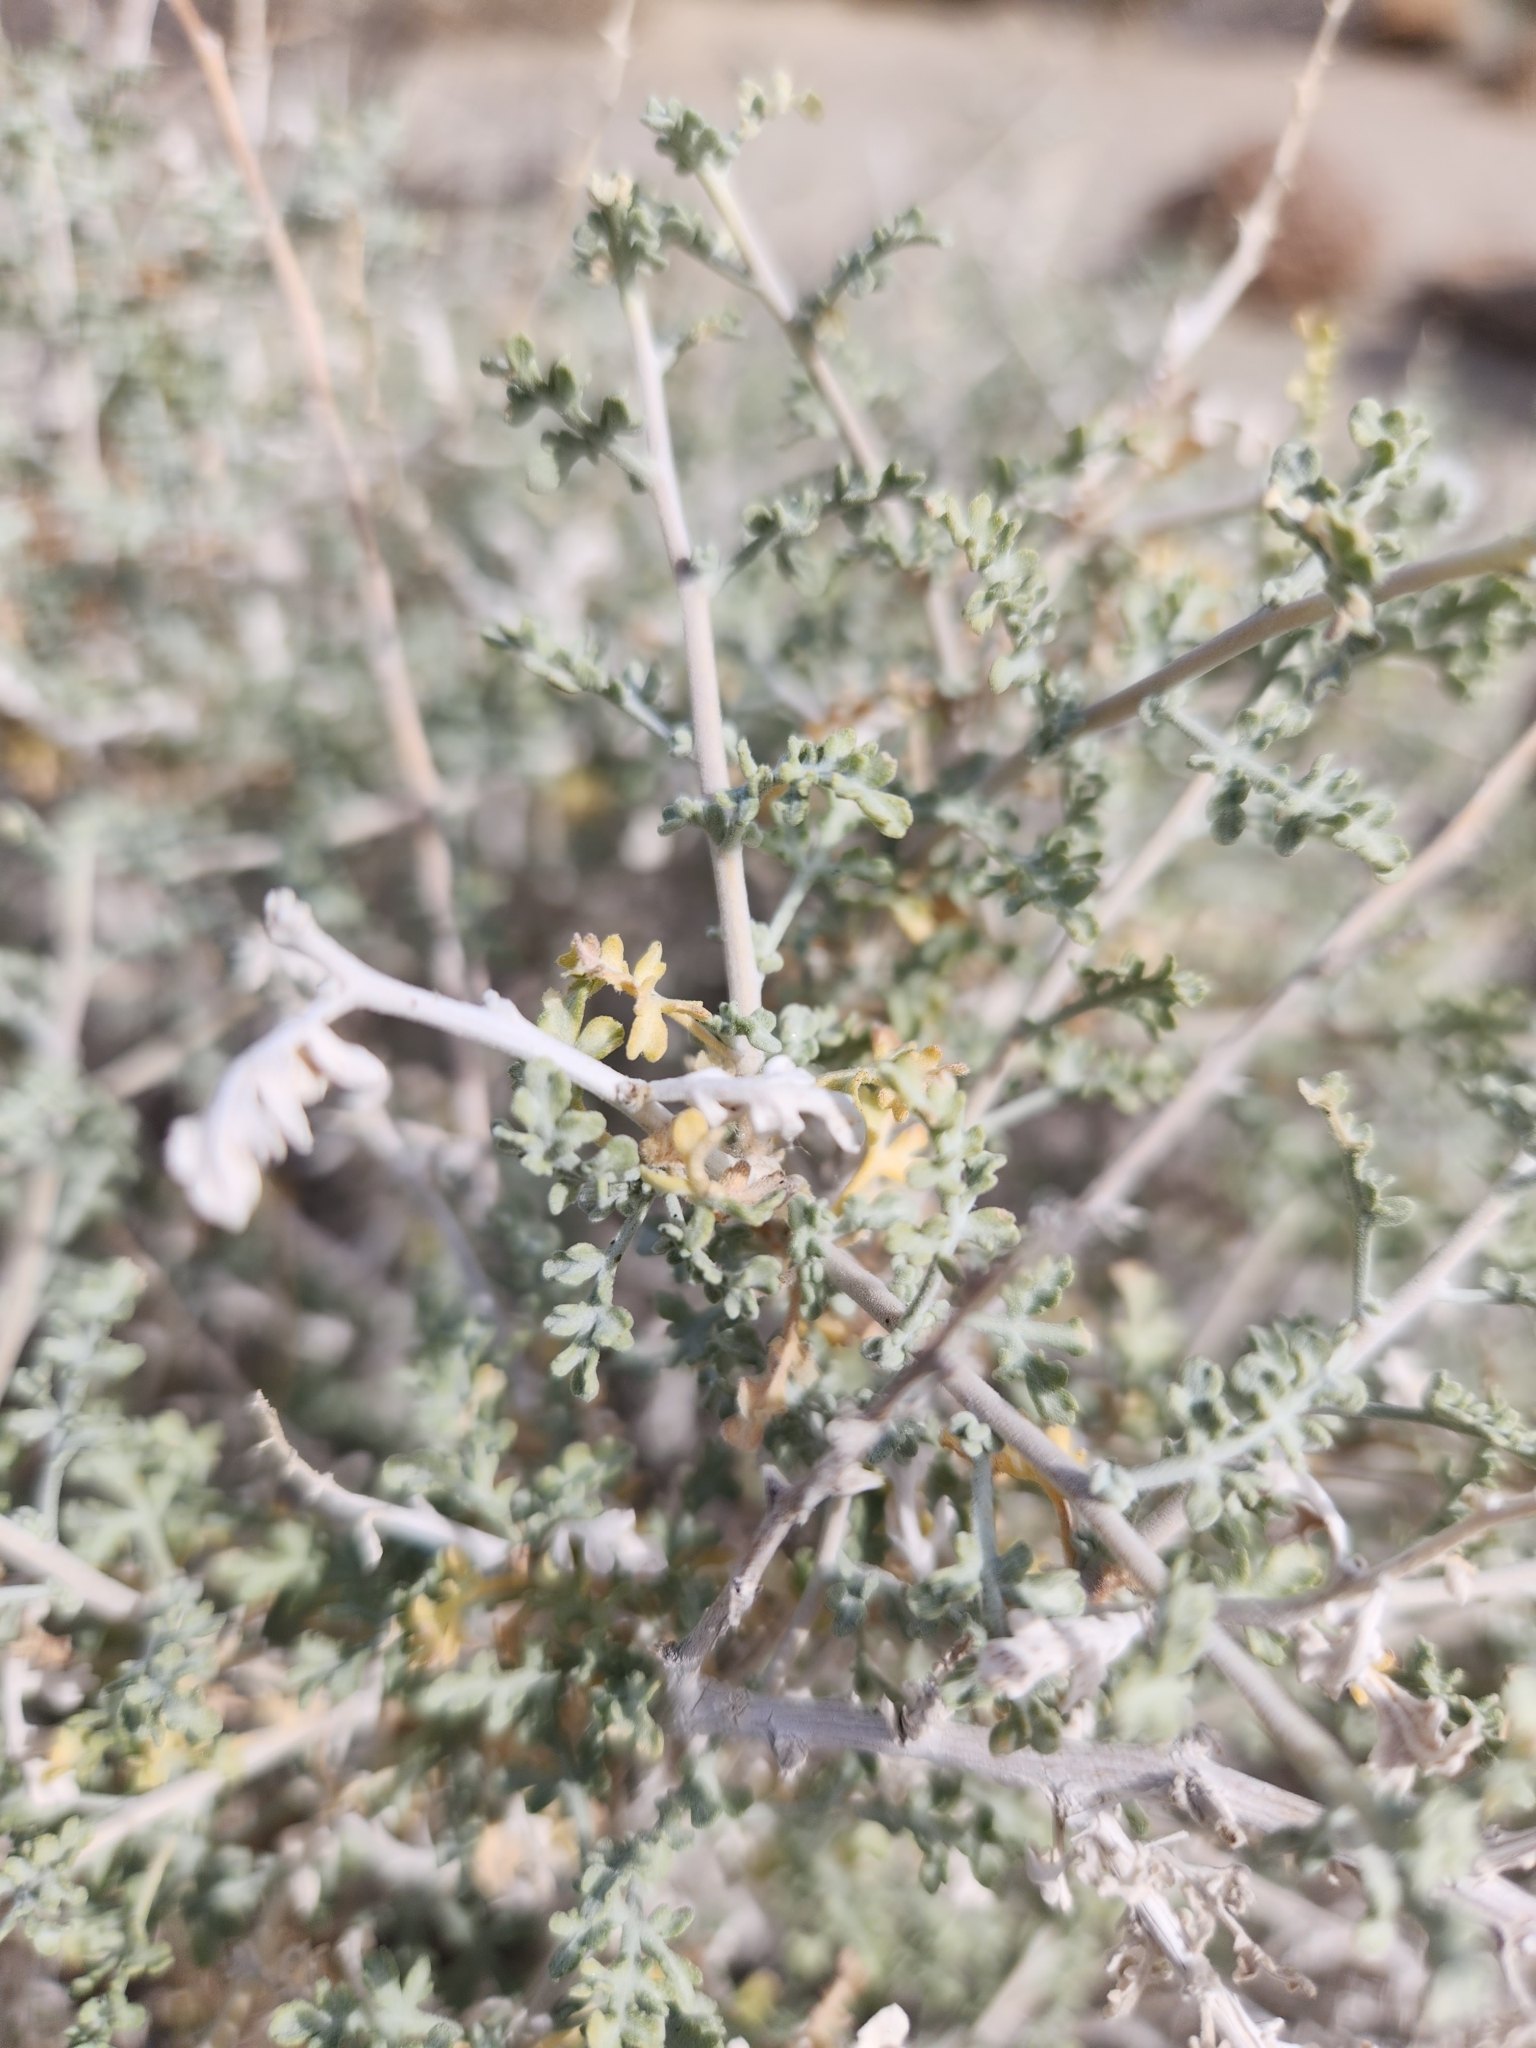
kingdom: Plantae
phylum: Tracheophyta
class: Magnoliopsida
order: Asterales
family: Asteraceae
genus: Ambrosia
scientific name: Ambrosia dumosa
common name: Bur-sage
